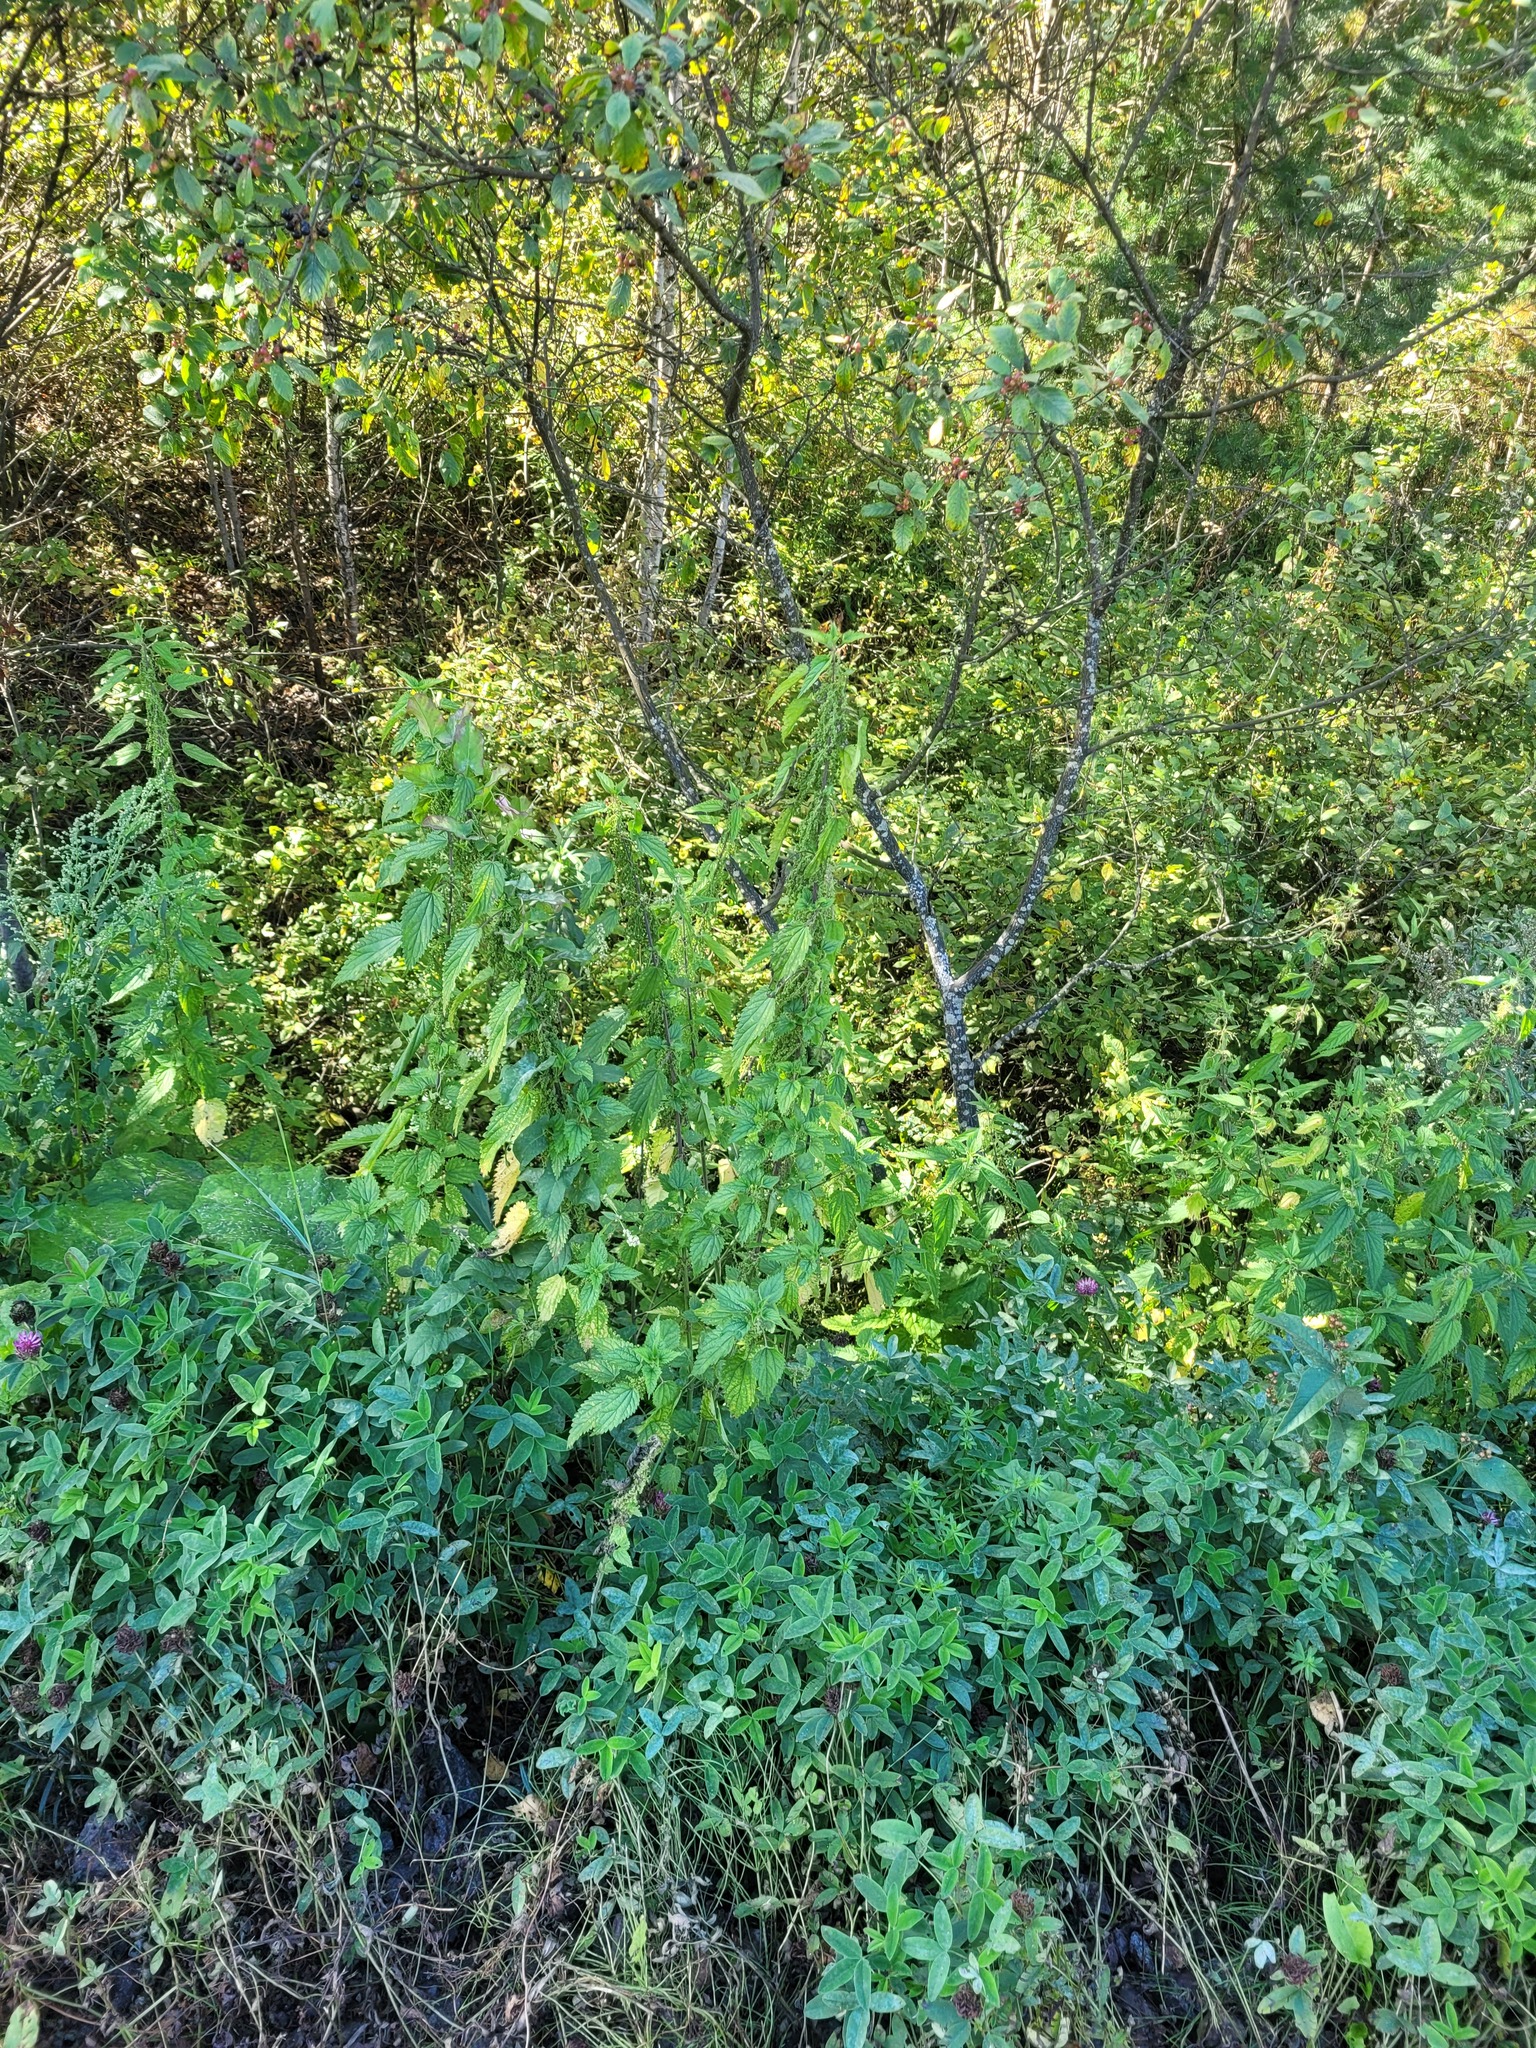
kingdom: Plantae
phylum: Tracheophyta
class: Magnoliopsida
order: Rosales
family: Urticaceae
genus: Urtica
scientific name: Urtica dioica
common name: Common nettle
